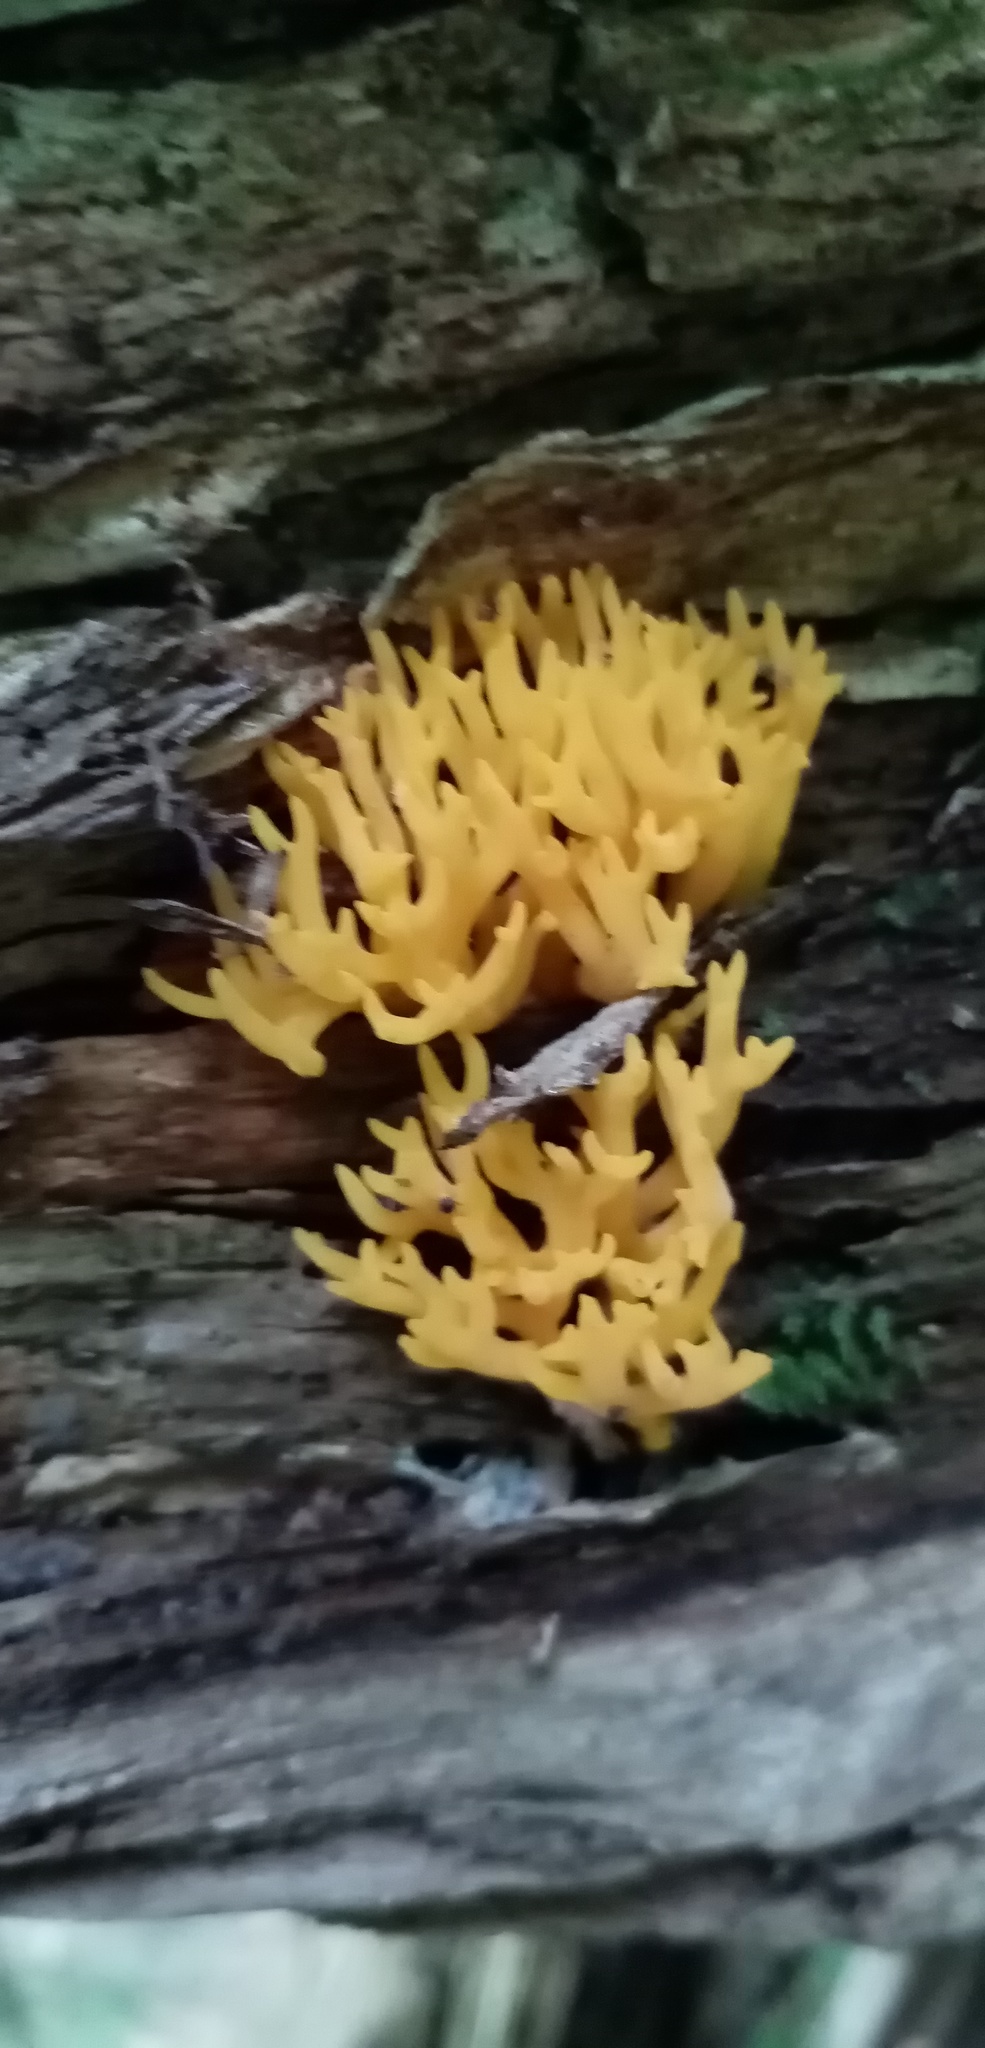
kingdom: Fungi
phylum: Basidiomycota
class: Dacrymycetes
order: Dacrymycetales
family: Dacrymycetaceae
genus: Calocera
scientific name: Calocera viscosa
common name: Yellow stagshorn
